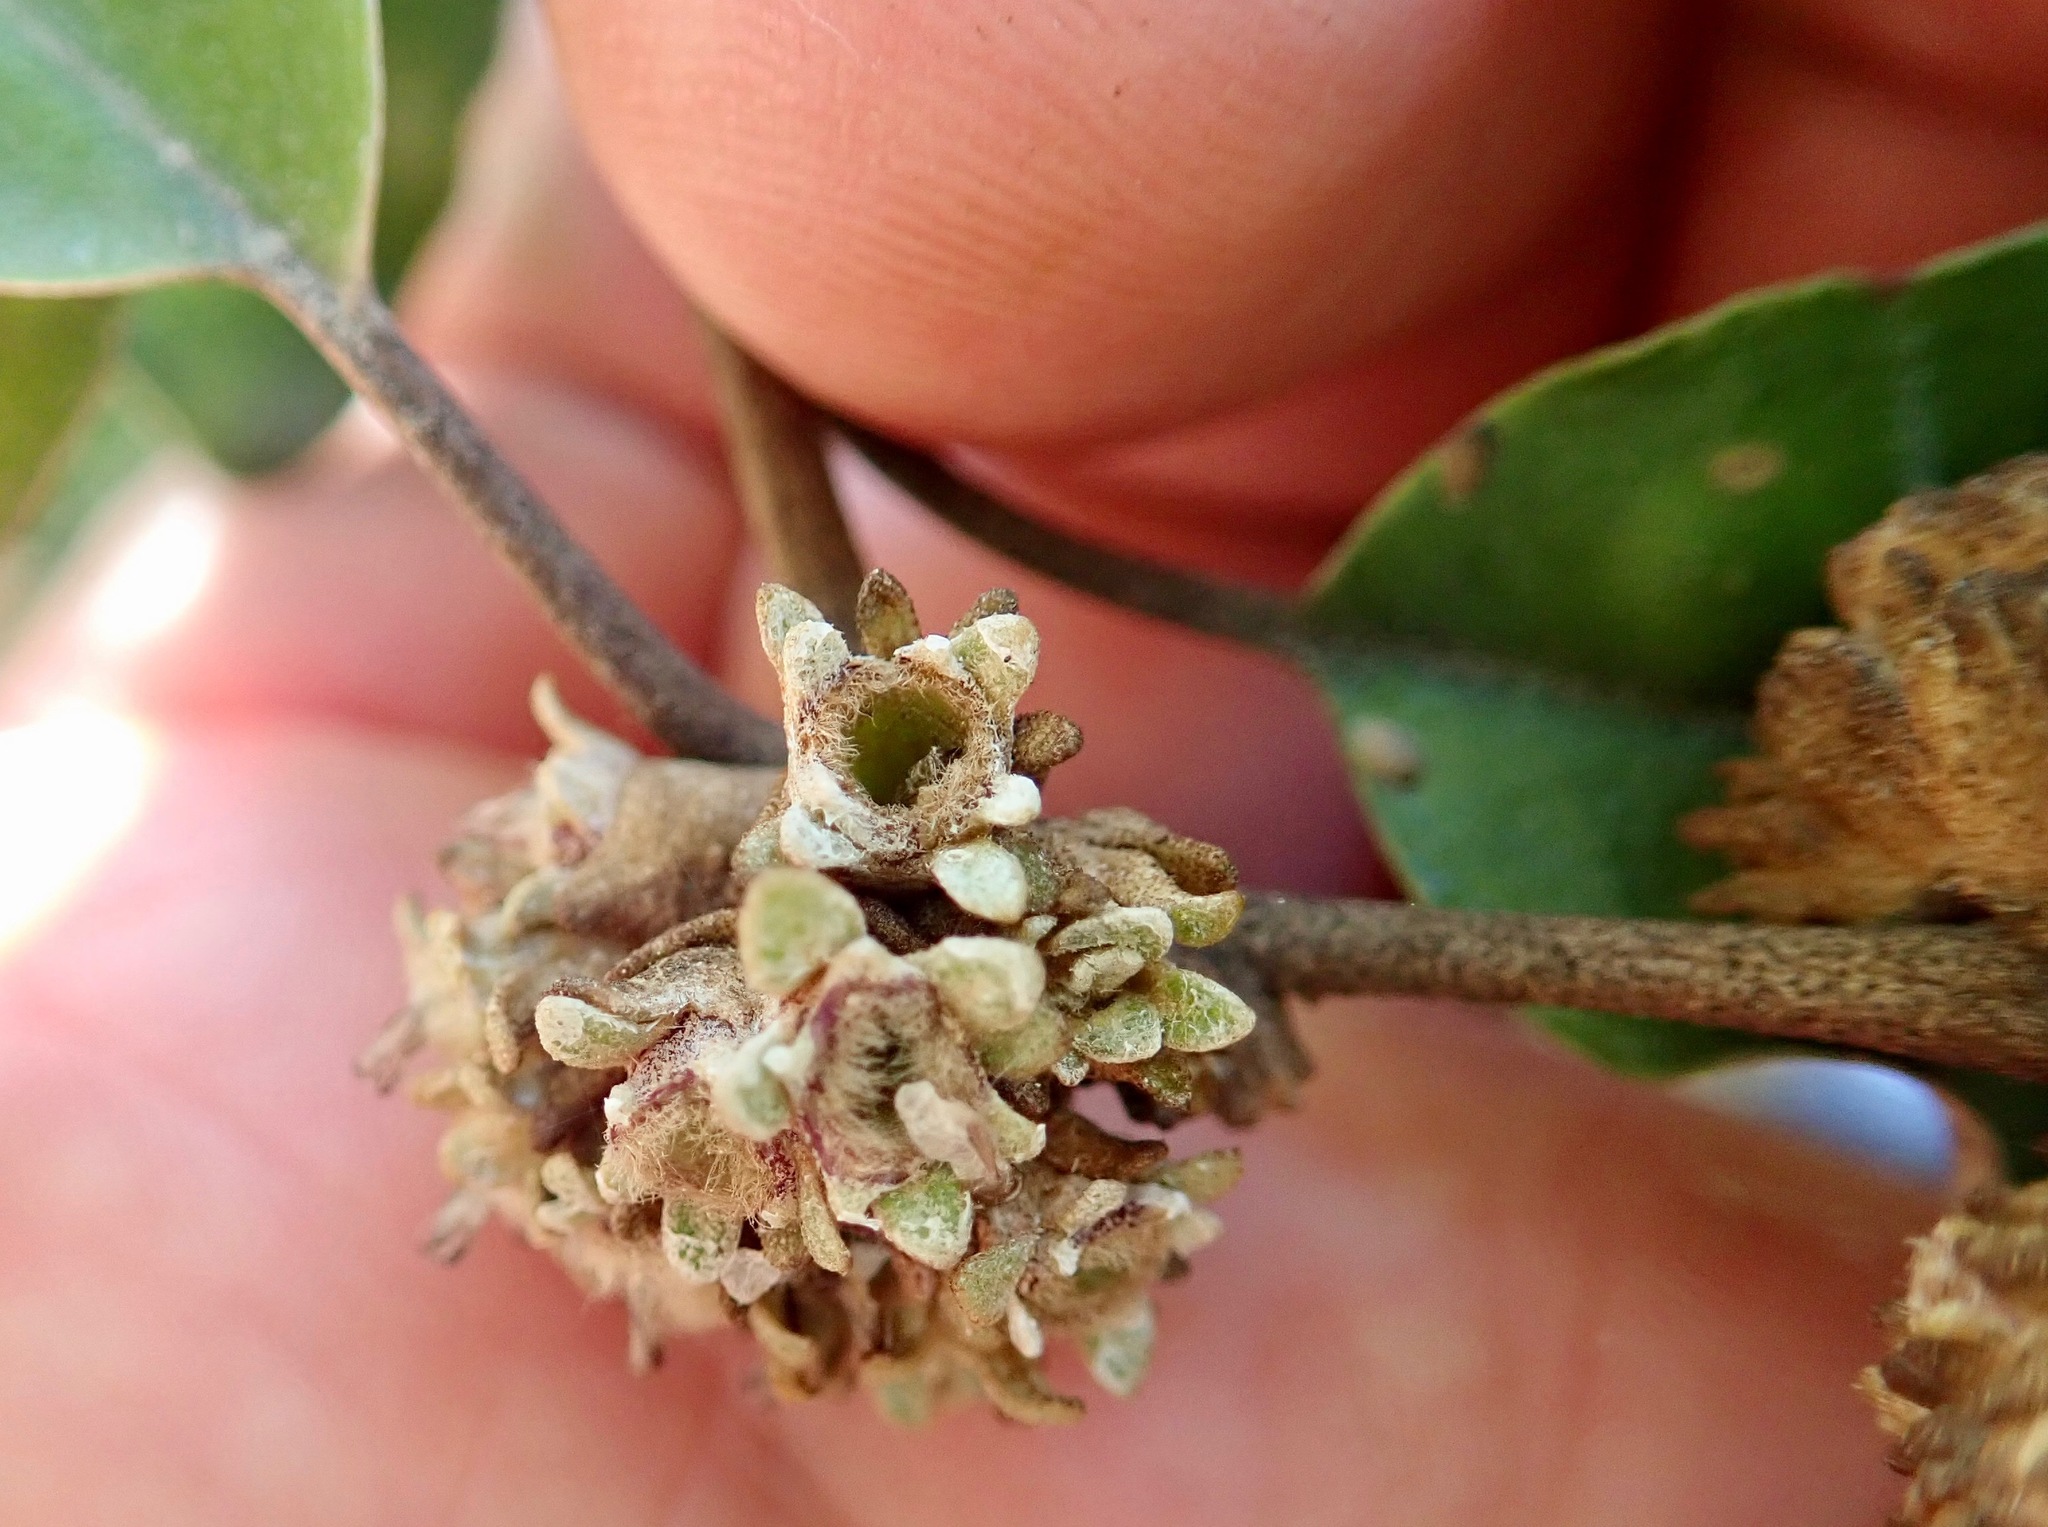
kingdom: Plantae
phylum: Tracheophyta
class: Magnoliopsida
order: Asterales
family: Asteraceae
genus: Olearia
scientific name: Olearia paniculata
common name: Akiraho
